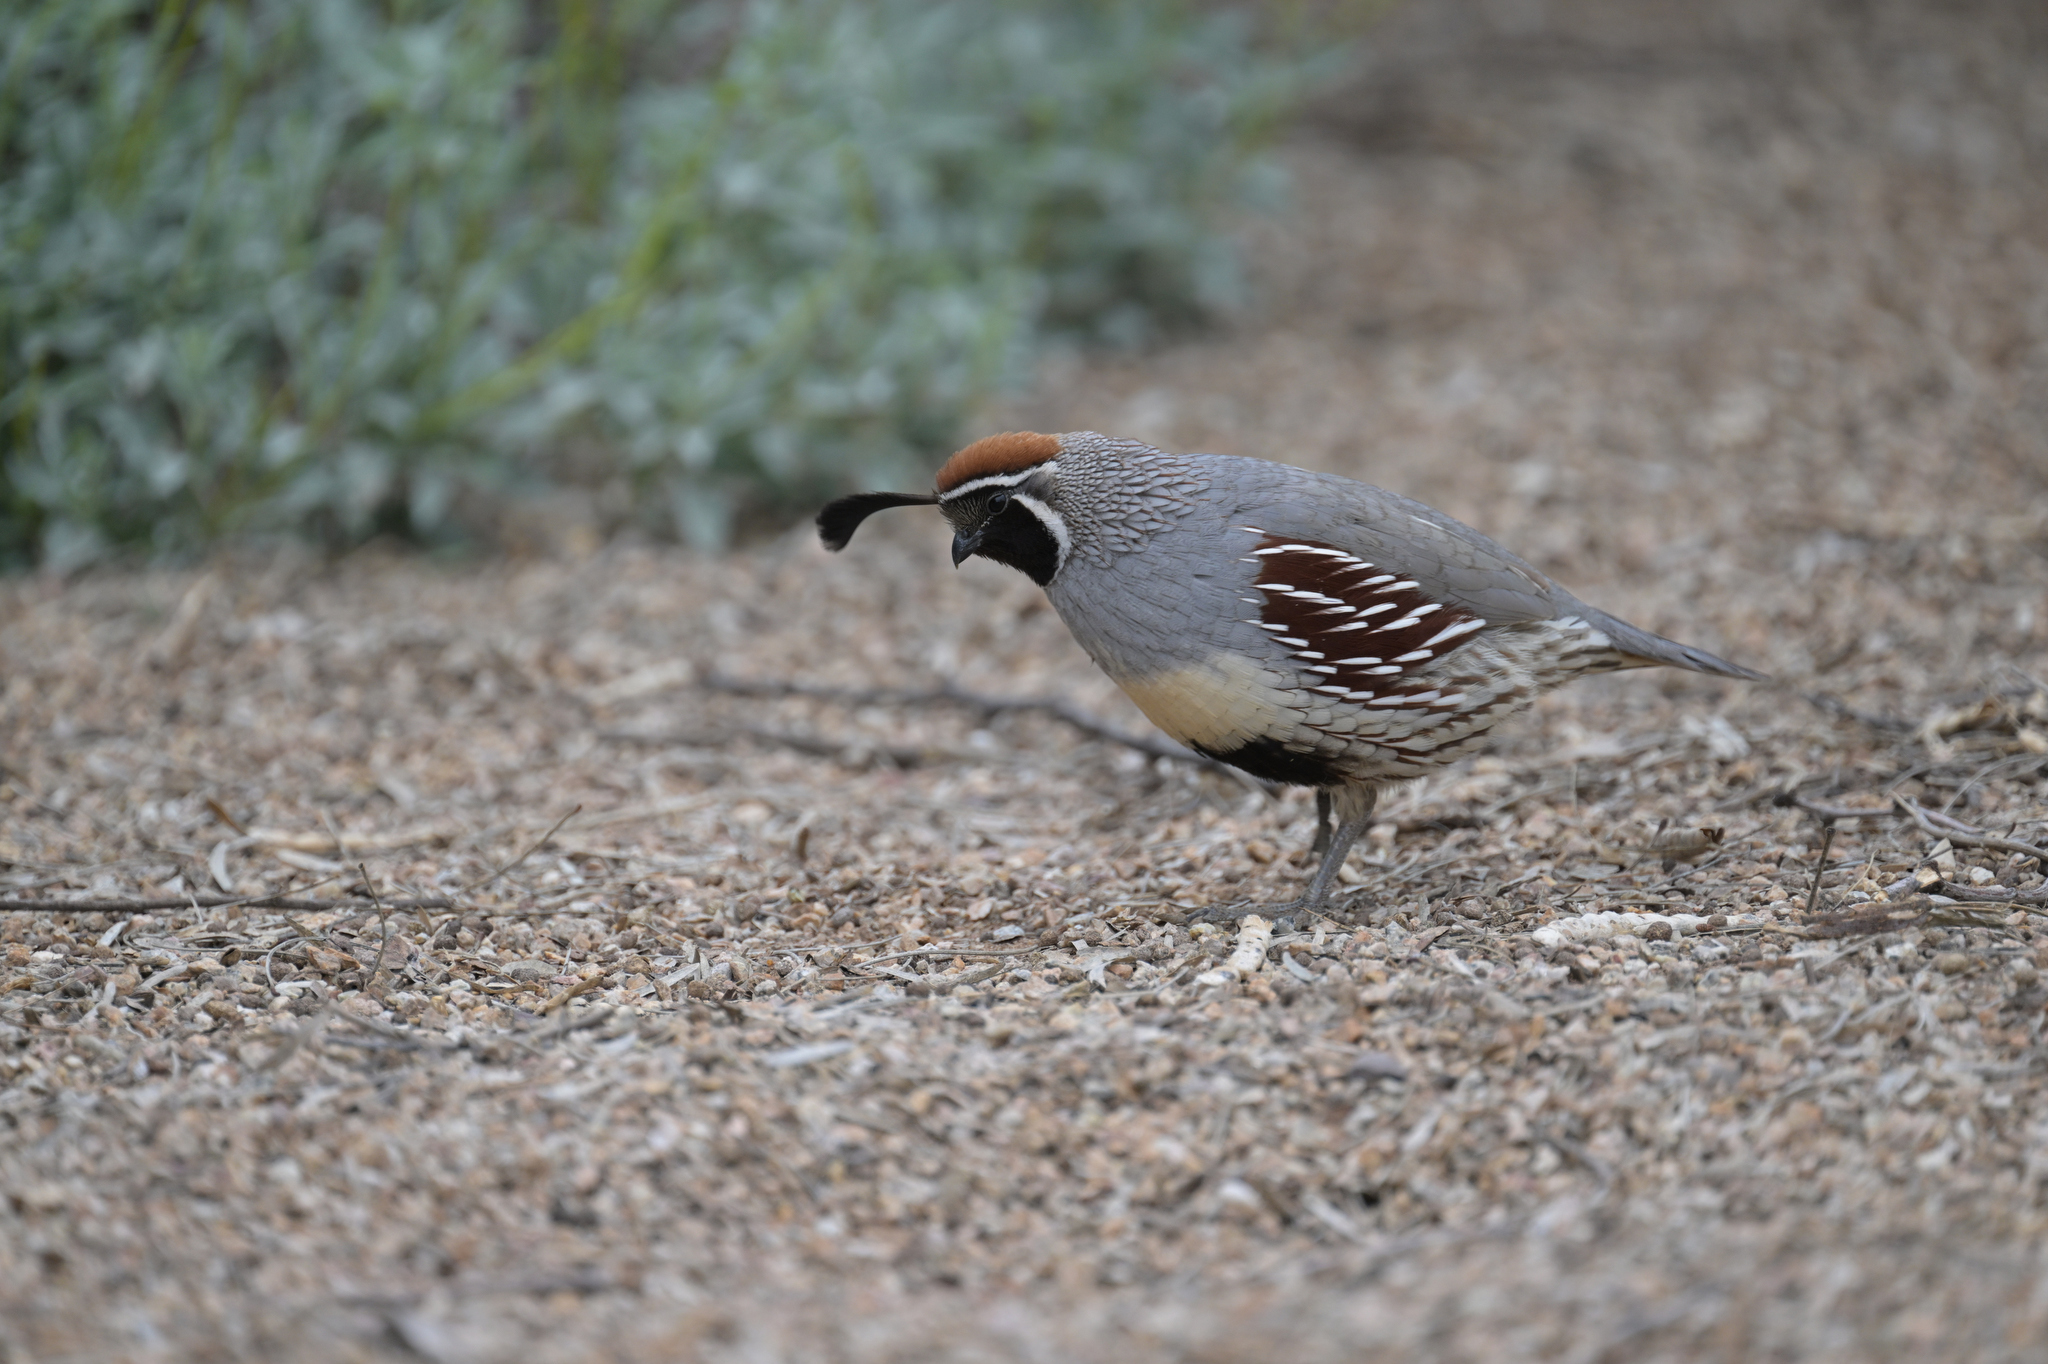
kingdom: Animalia
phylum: Chordata
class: Aves
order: Galliformes
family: Odontophoridae
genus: Callipepla
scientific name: Callipepla gambelii
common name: Gambel's quail
